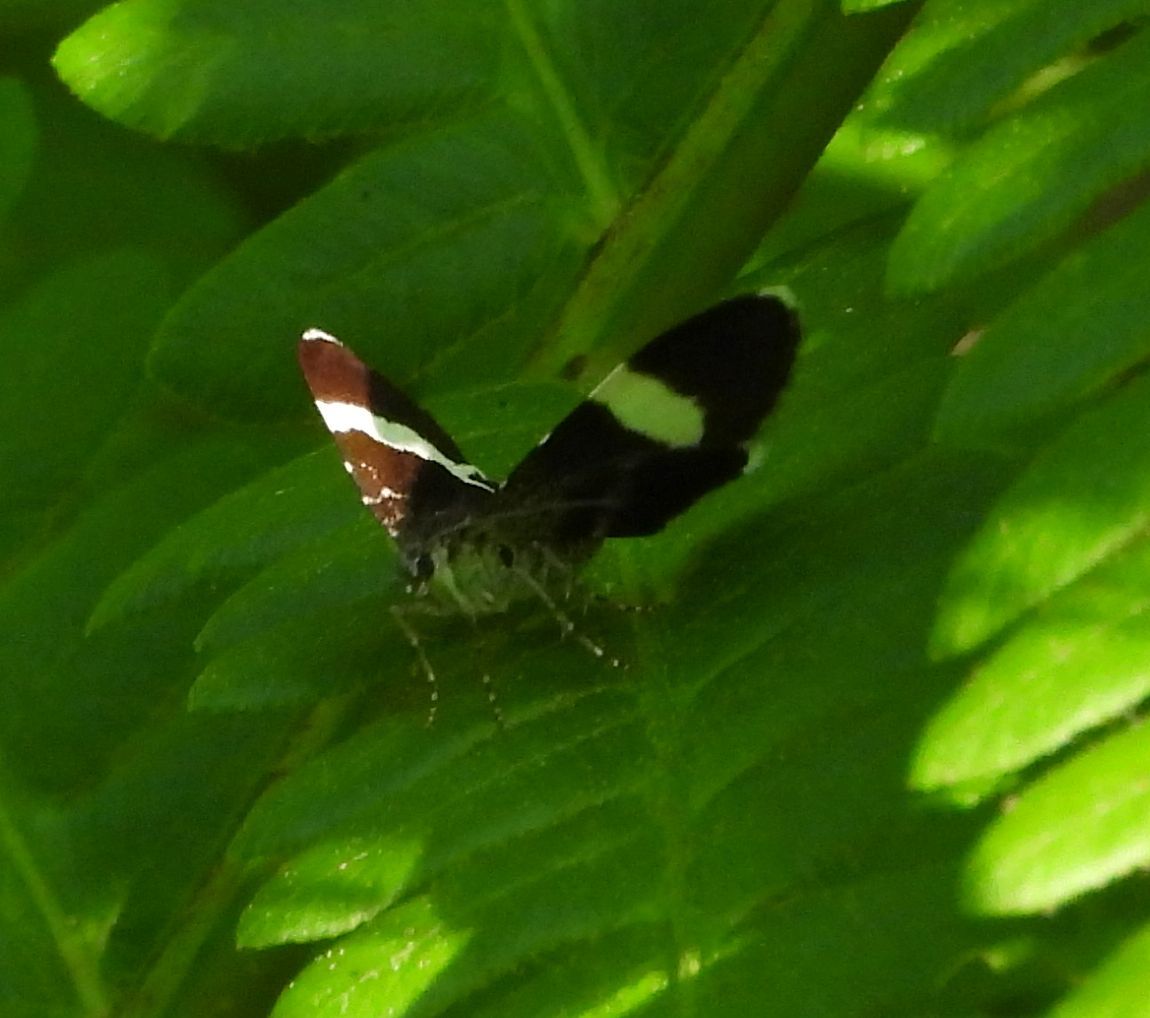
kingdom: Animalia
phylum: Arthropoda
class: Insecta
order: Lepidoptera
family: Geometridae
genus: Trichodezia
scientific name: Trichodezia albovittata
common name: White striped black
